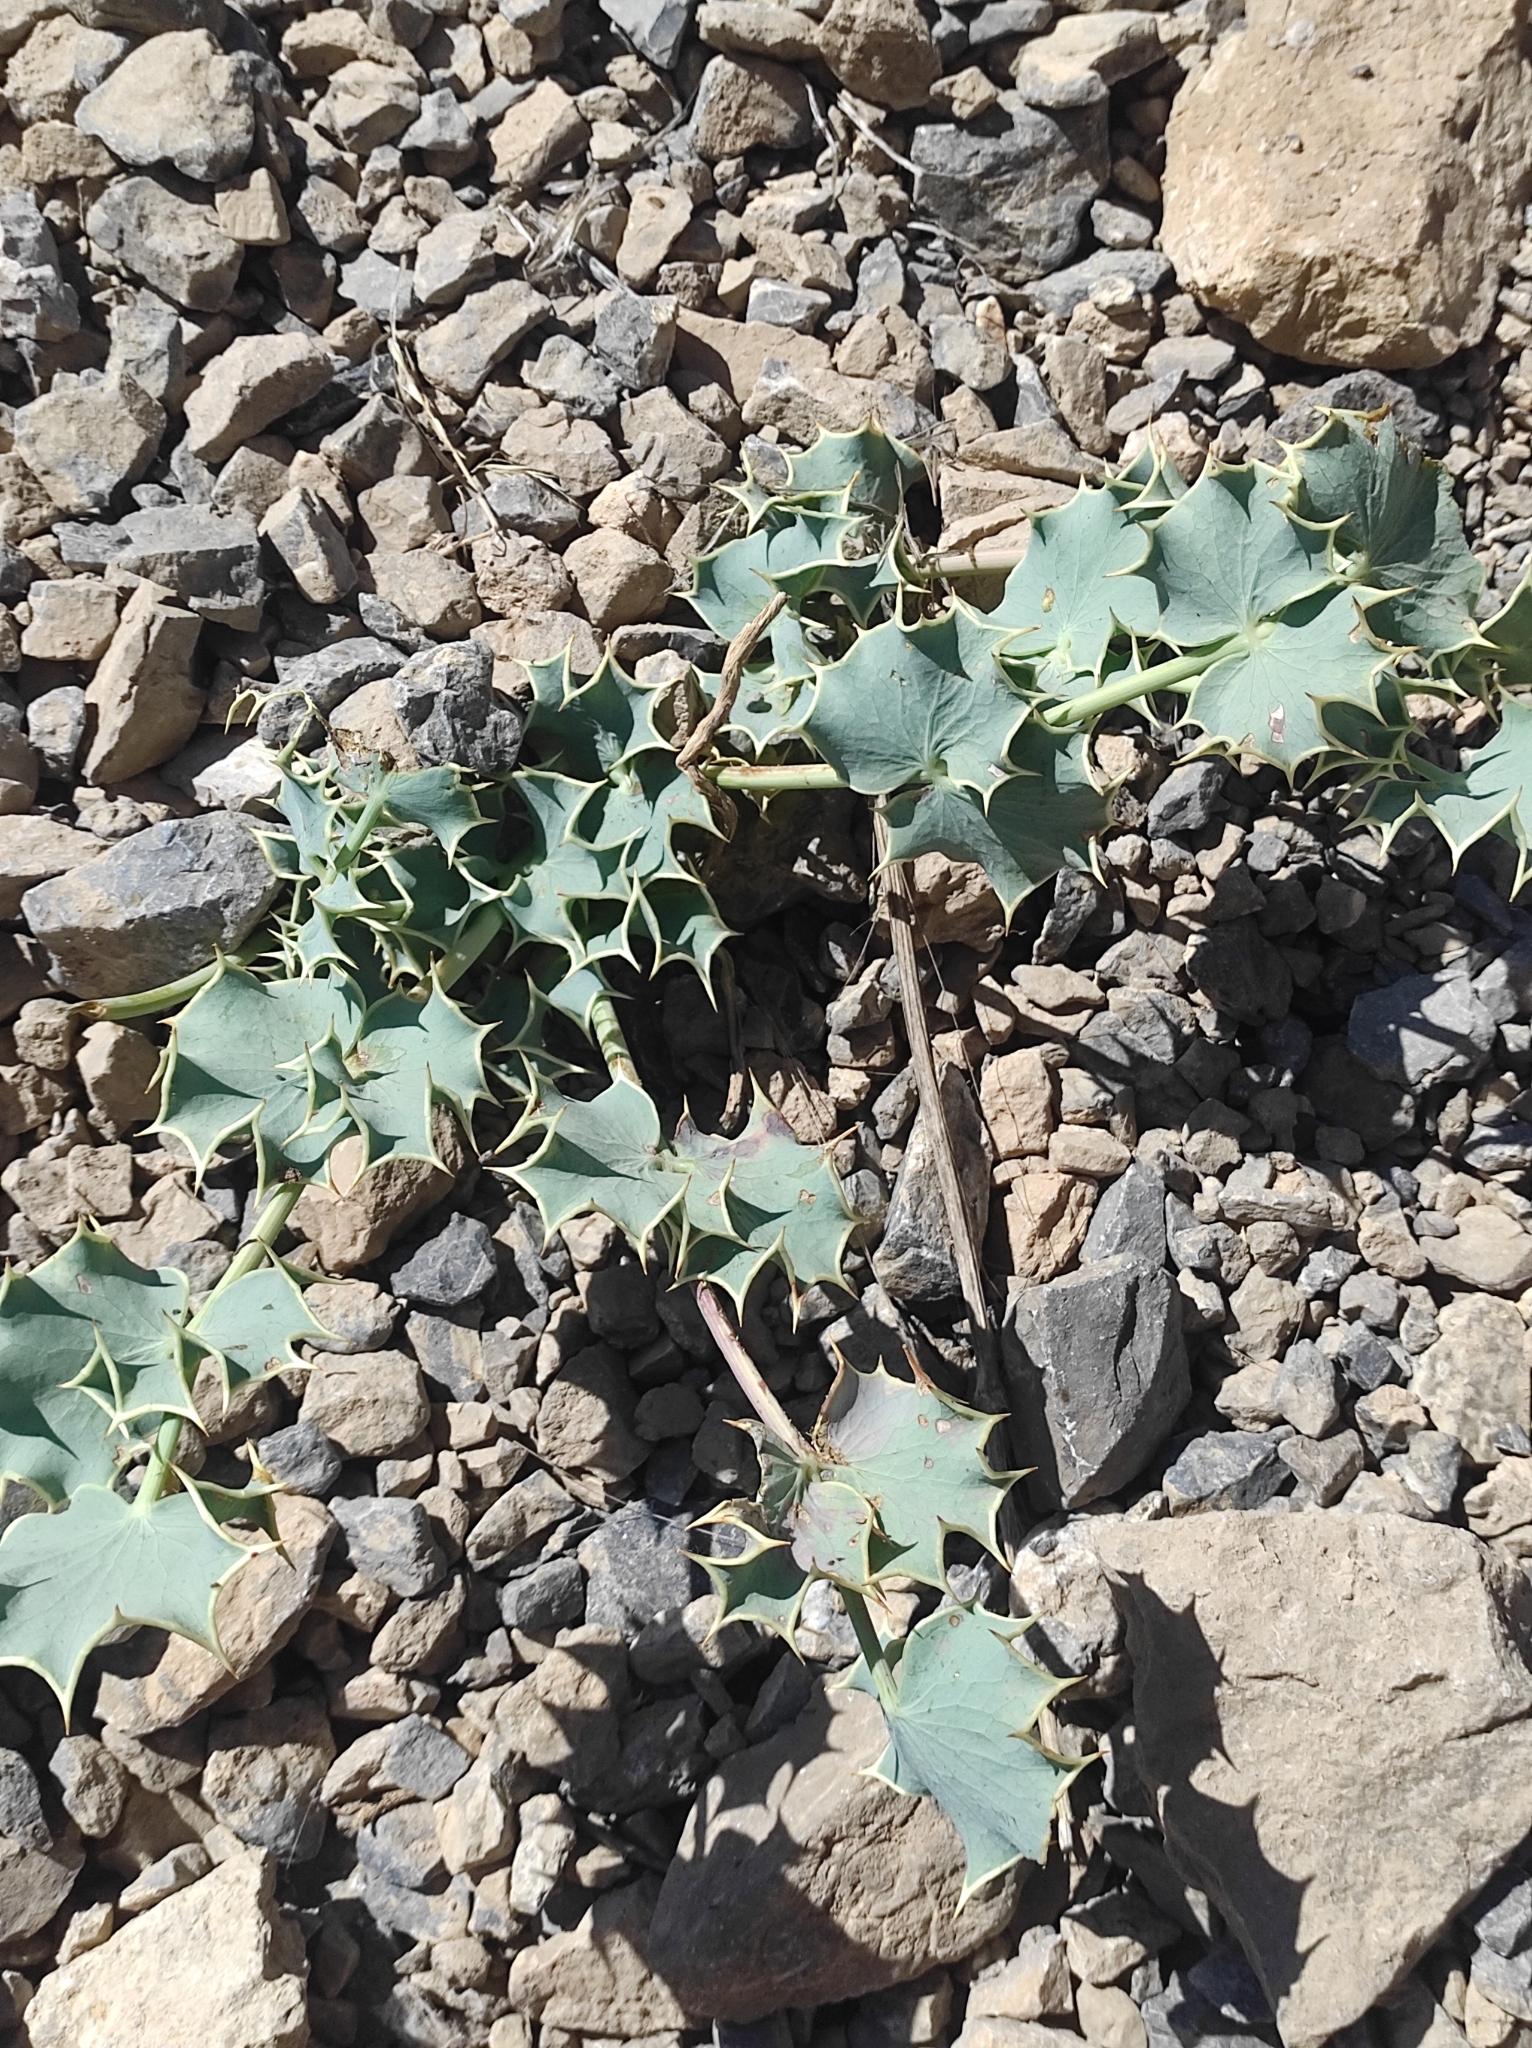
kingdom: Plantae
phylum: Tracheophyta
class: Magnoliopsida
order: Apiales
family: Apiaceae
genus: Azilia
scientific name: Azilia eryngioides
